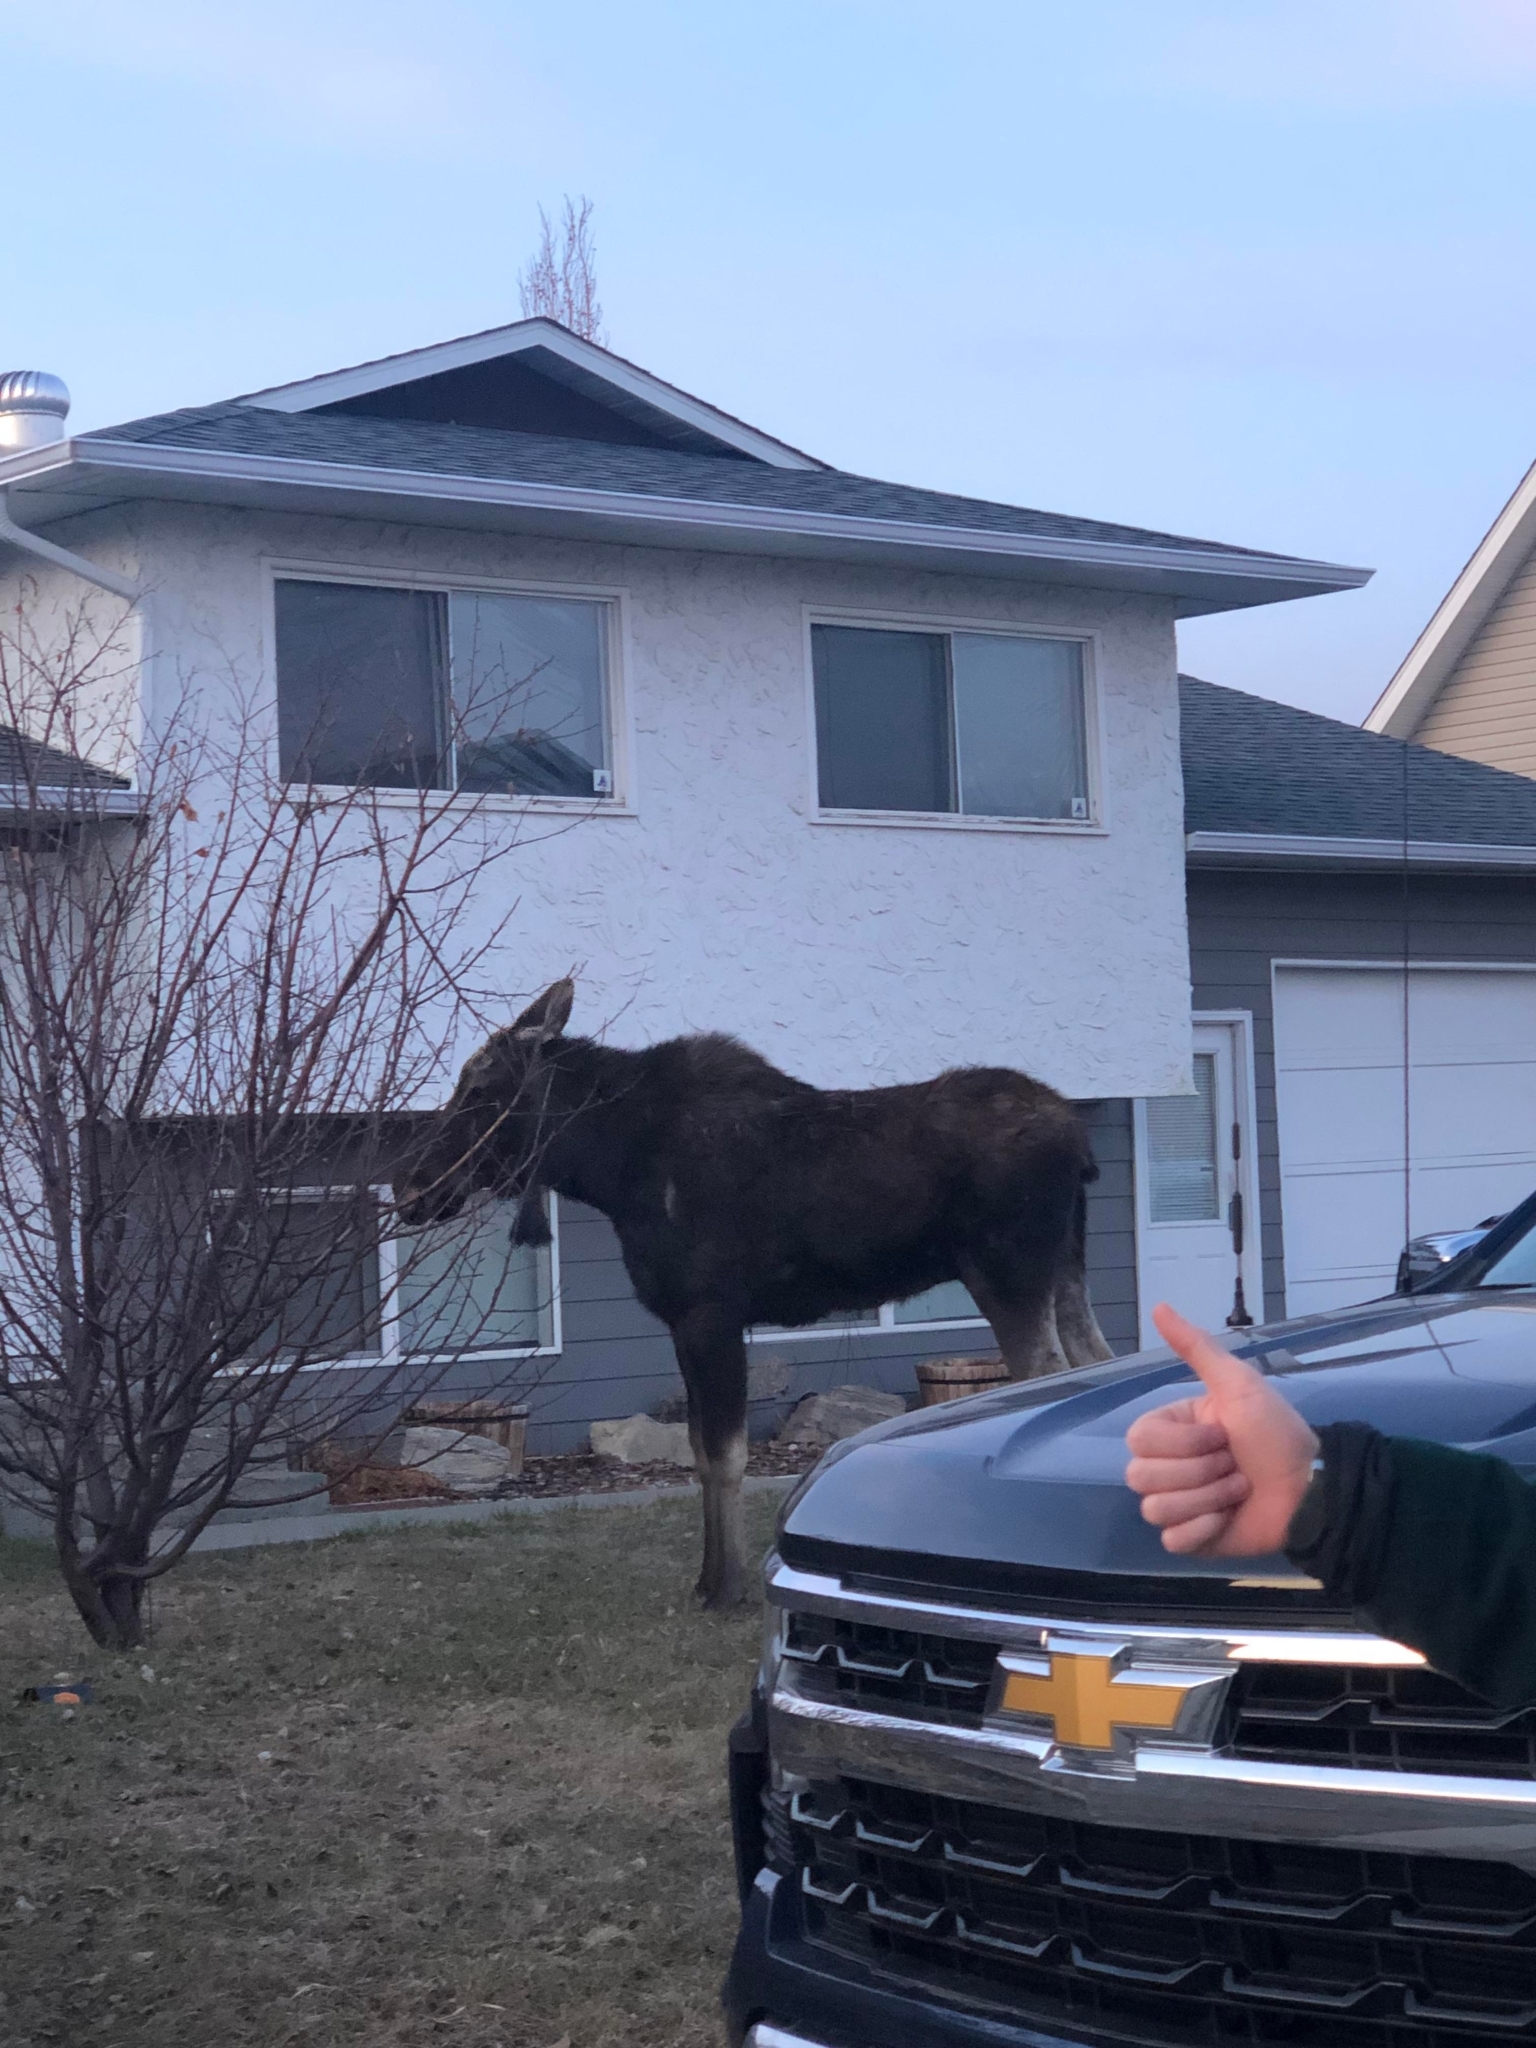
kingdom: Animalia
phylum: Chordata
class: Mammalia
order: Artiodactyla
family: Cervidae
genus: Alces
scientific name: Alces alces
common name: Moose
